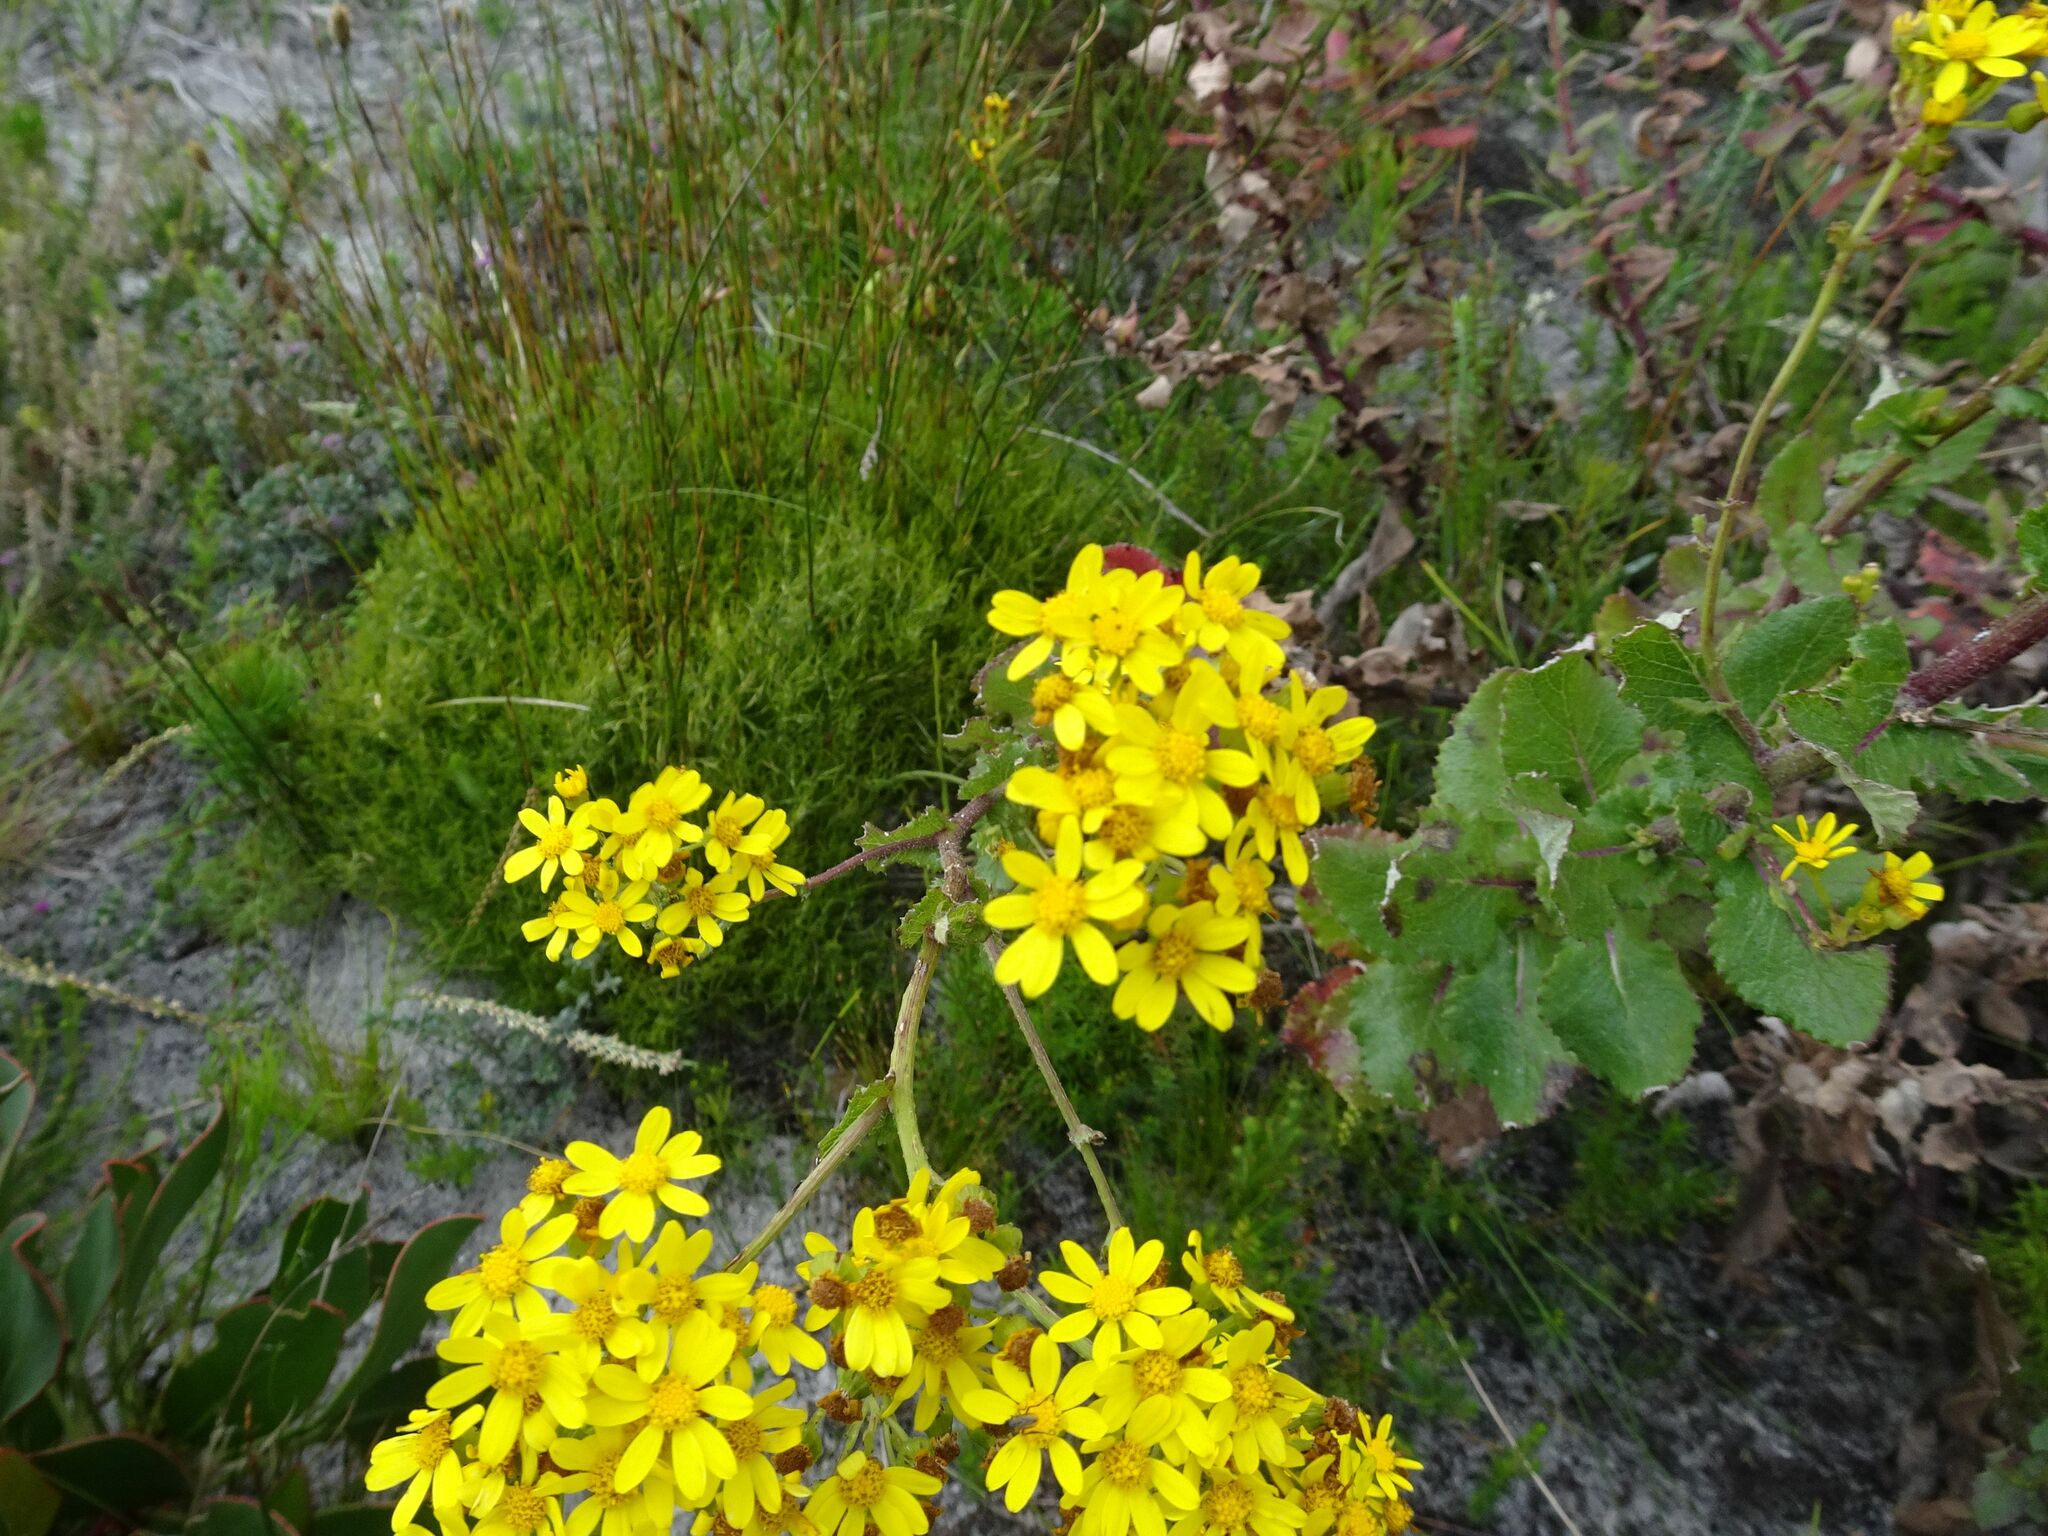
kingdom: Plantae
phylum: Tracheophyta
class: Magnoliopsida
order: Asterales
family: Asteraceae
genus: Senecio
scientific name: Senecio rigidus
